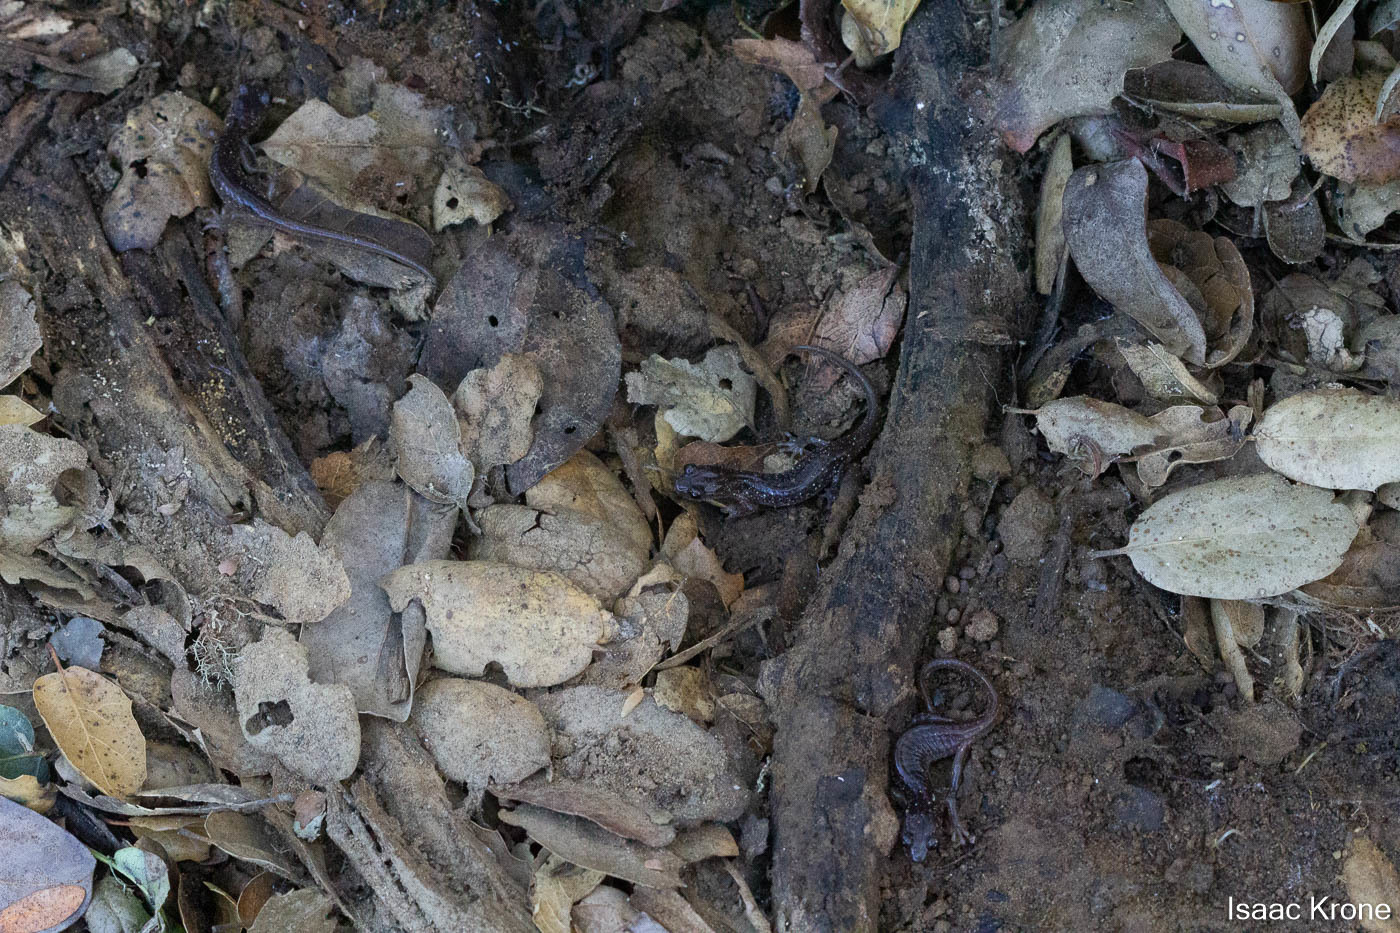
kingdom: Animalia
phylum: Chordata
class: Amphibia
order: Caudata
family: Plethodontidae
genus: Aneides
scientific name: Aneides lugubris
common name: Arboreal salamander
